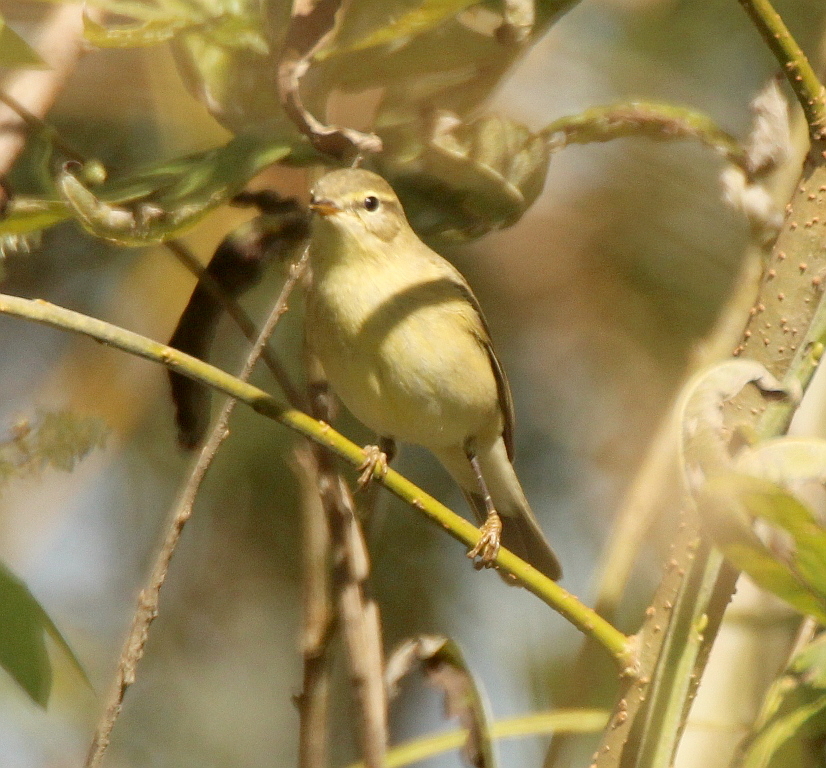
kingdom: Animalia
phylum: Chordata
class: Aves
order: Passeriformes
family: Phylloscopidae
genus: Phylloscopus
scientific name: Phylloscopus trochilus
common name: Willow warbler
